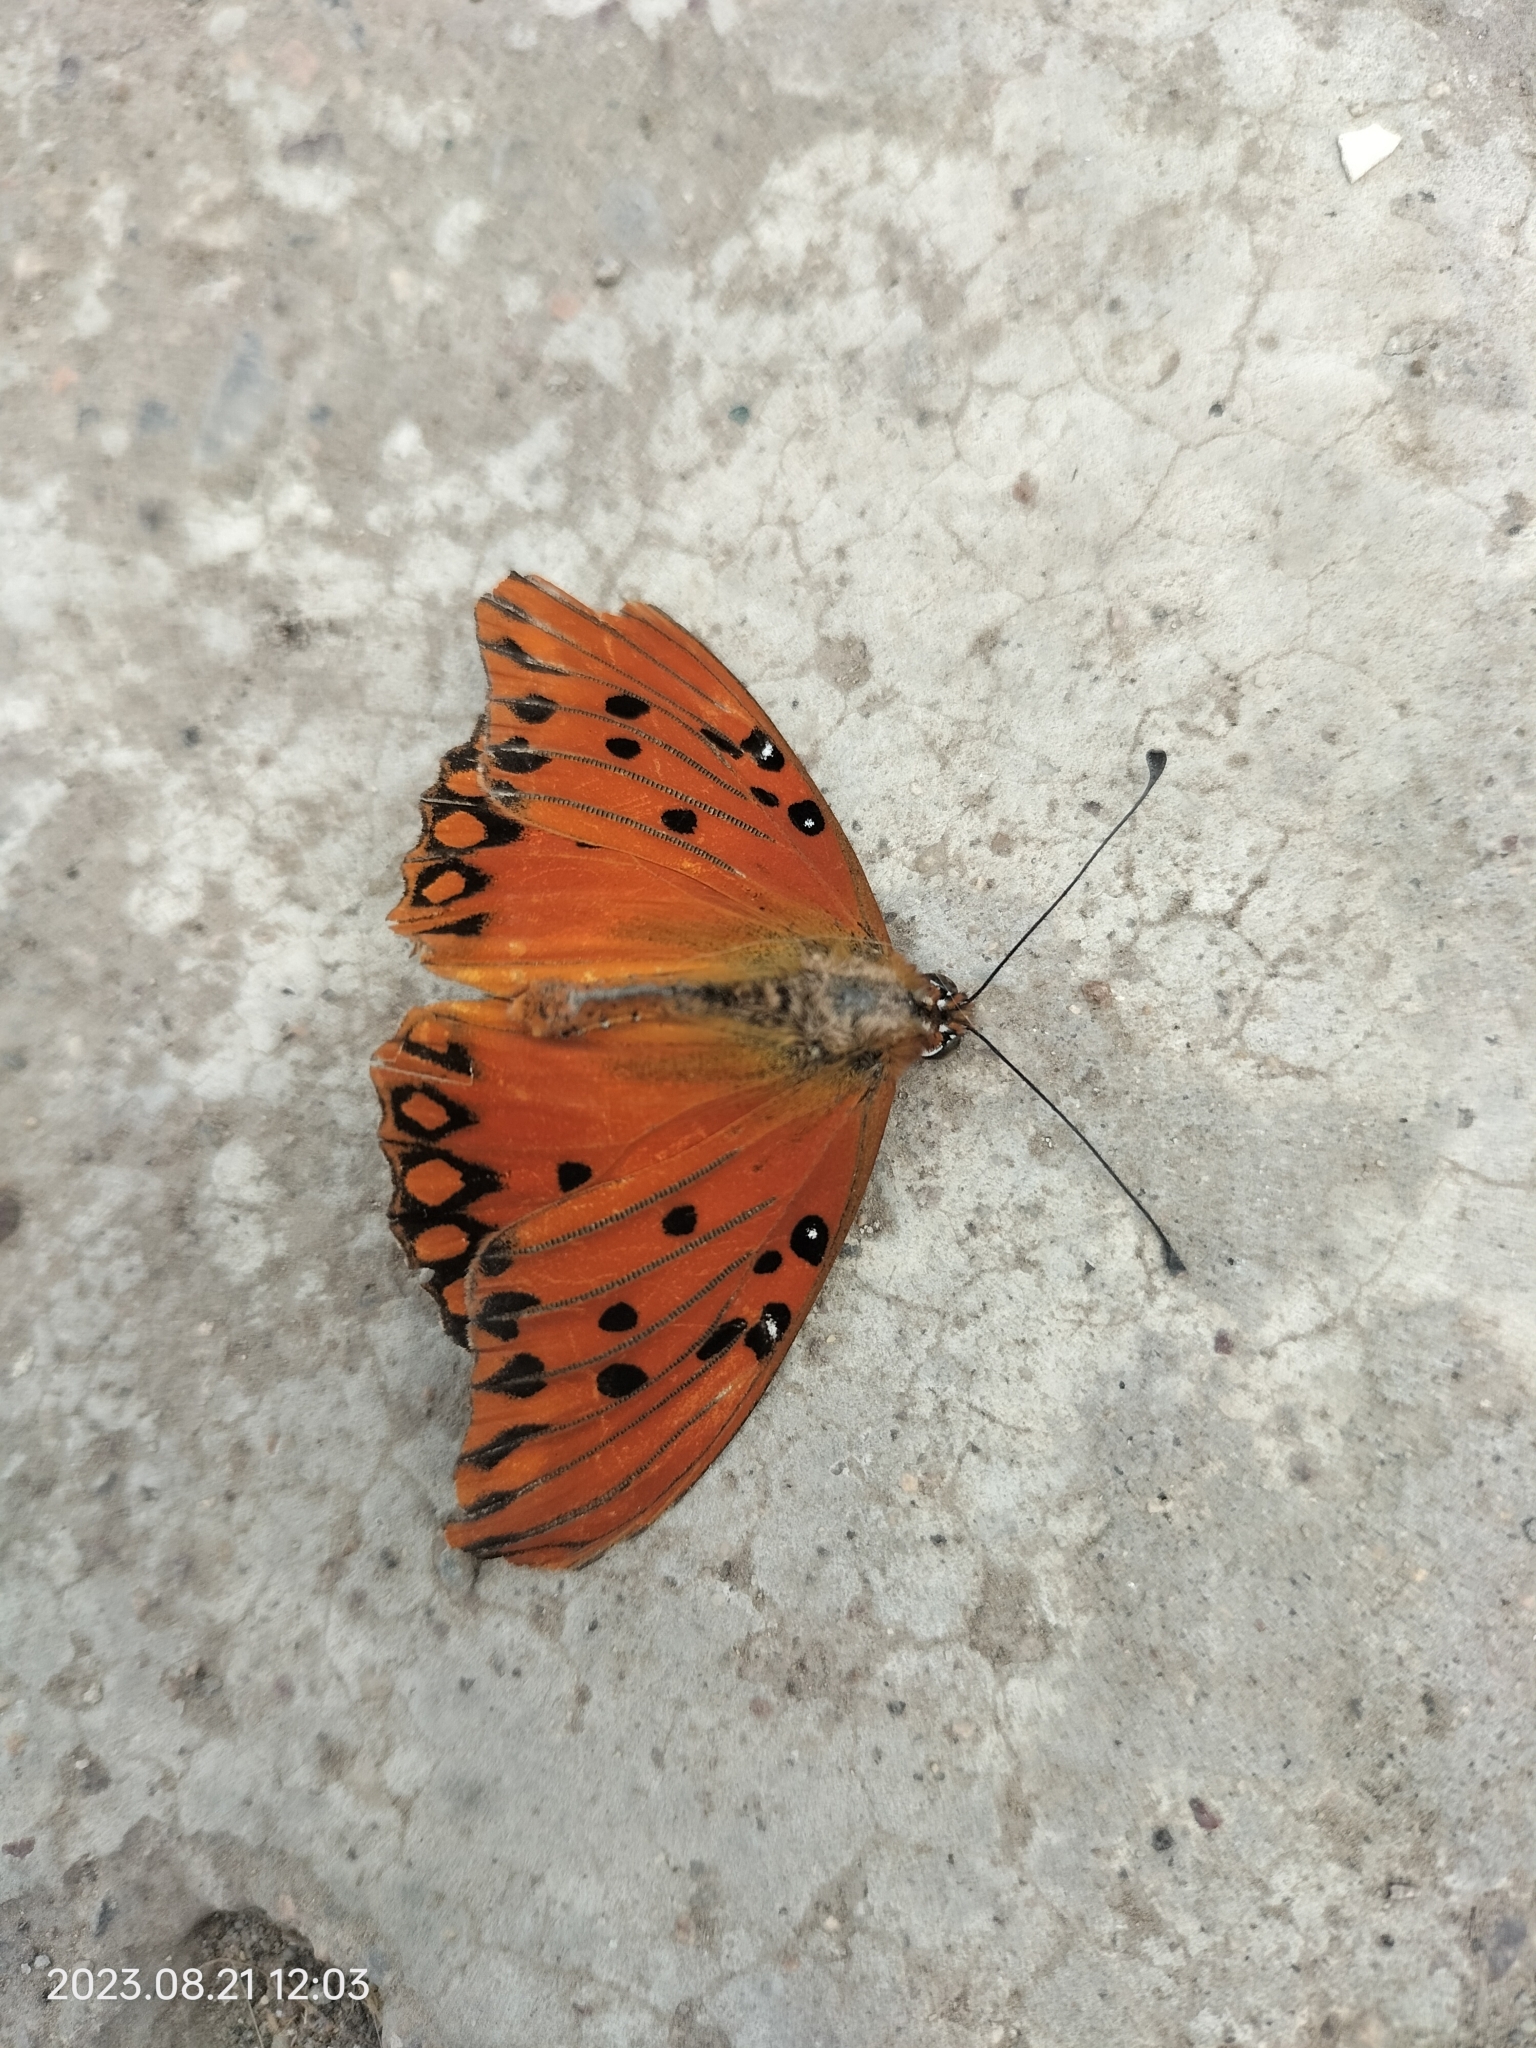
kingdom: Animalia
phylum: Arthropoda
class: Insecta
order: Lepidoptera
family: Nymphalidae
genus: Dione
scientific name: Dione vanillae
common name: Gulf fritillary
